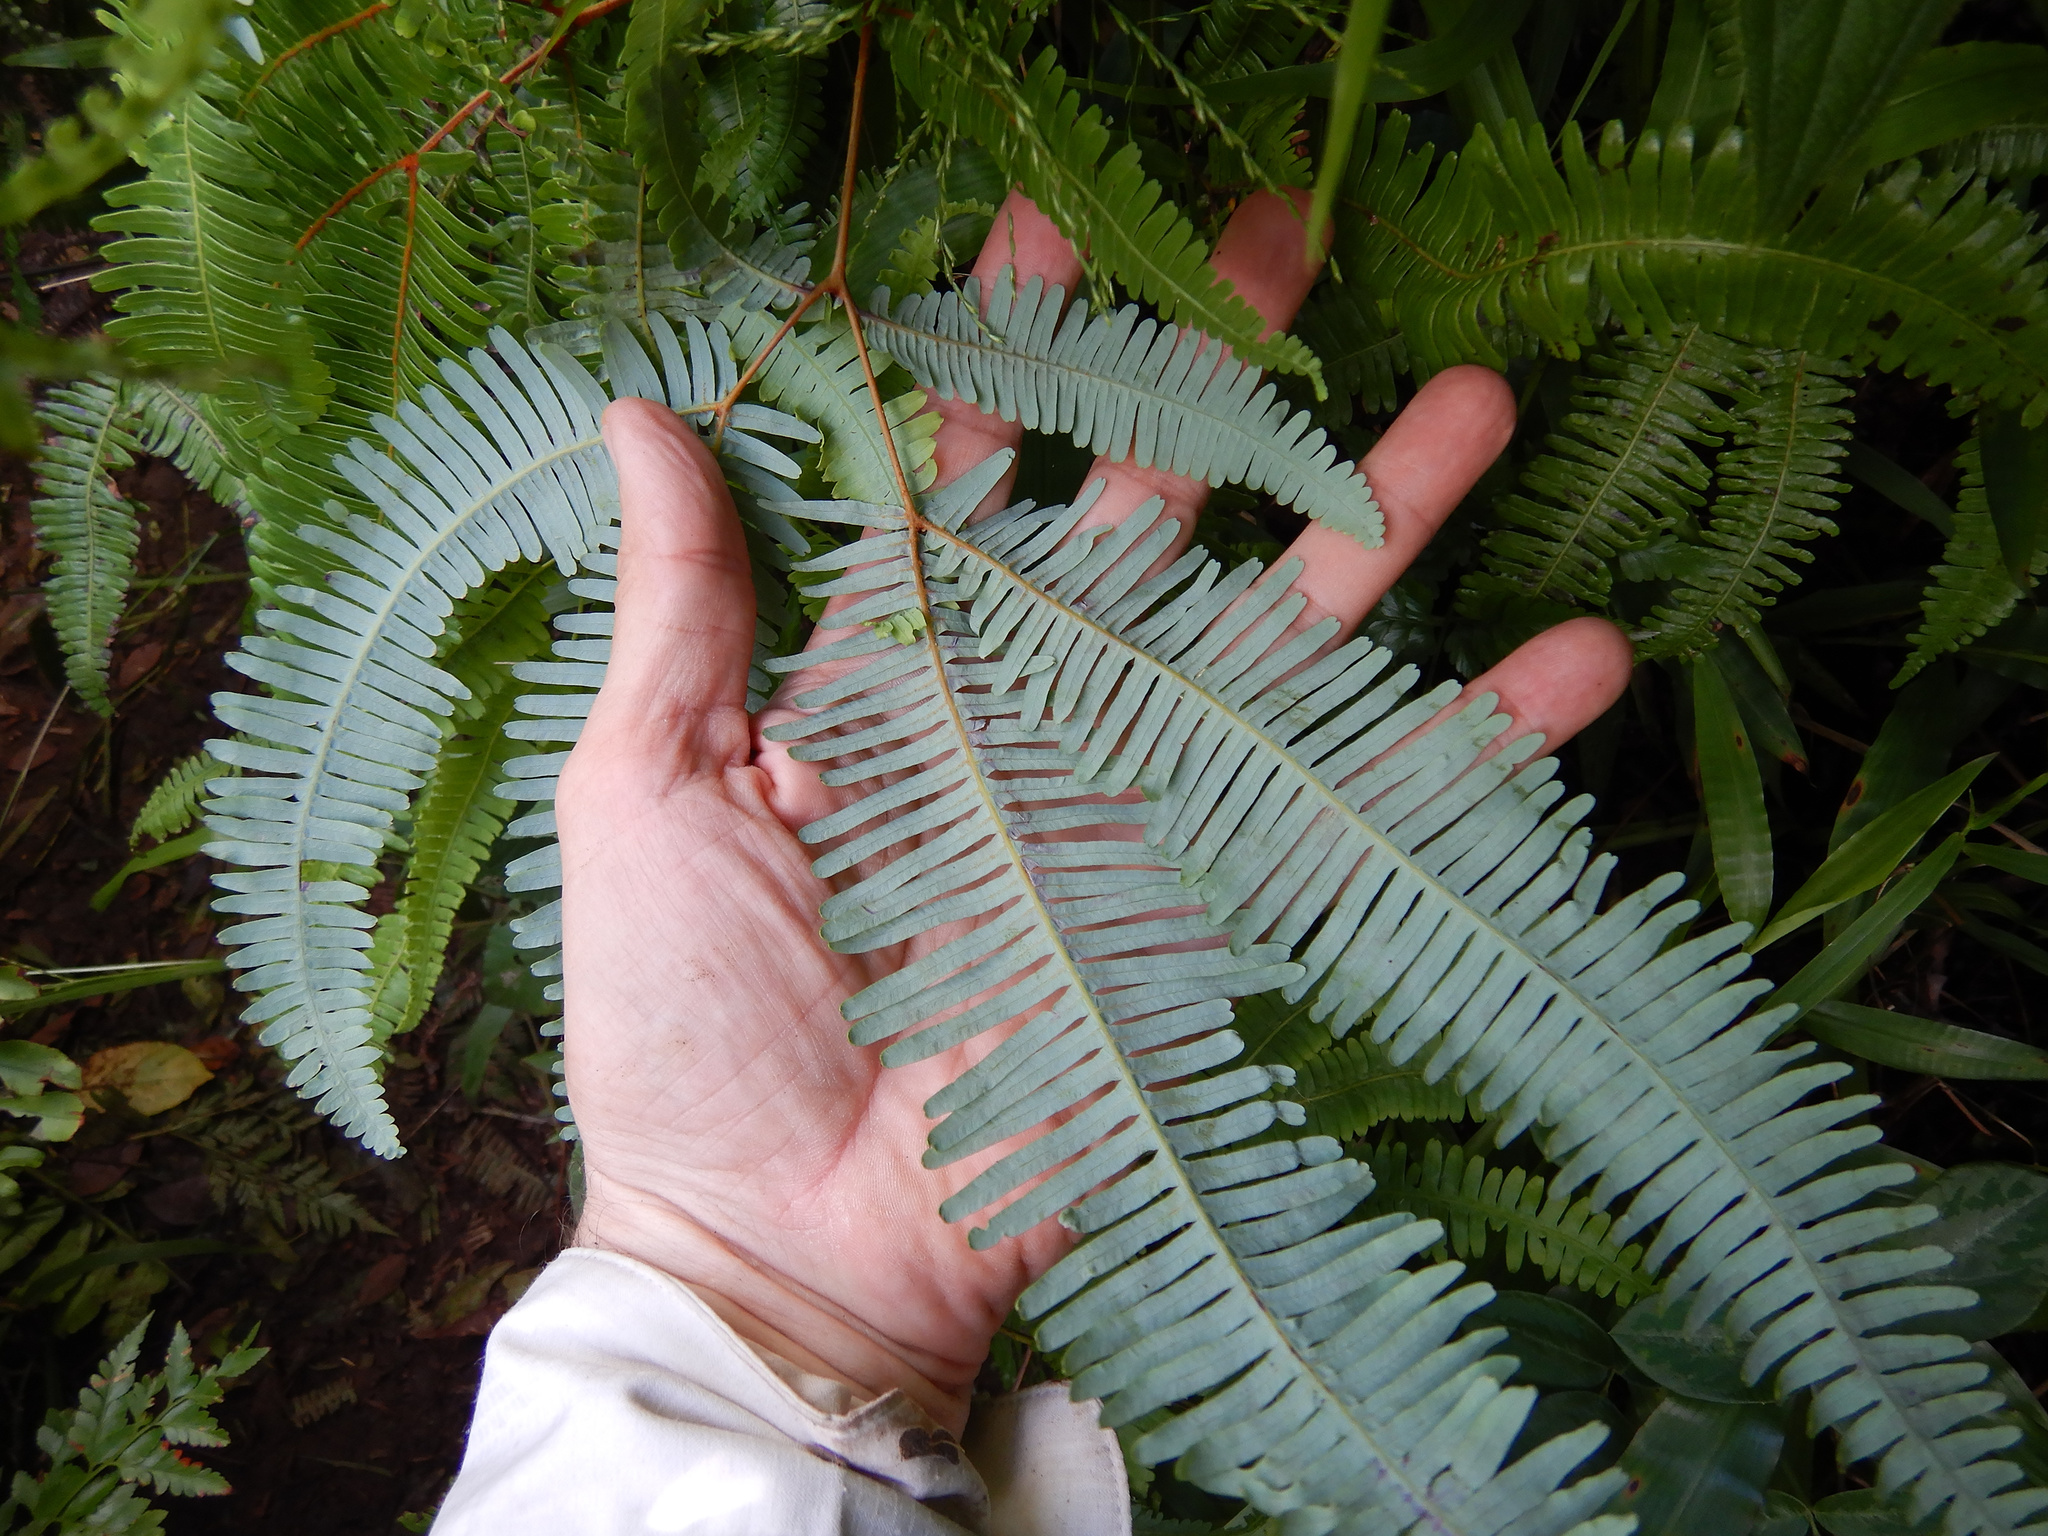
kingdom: Plantae
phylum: Tracheophyta
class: Polypodiopsida
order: Gleicheniales
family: Gleicheniaceae
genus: Dicranopteris
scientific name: Dicranopteris linearis
